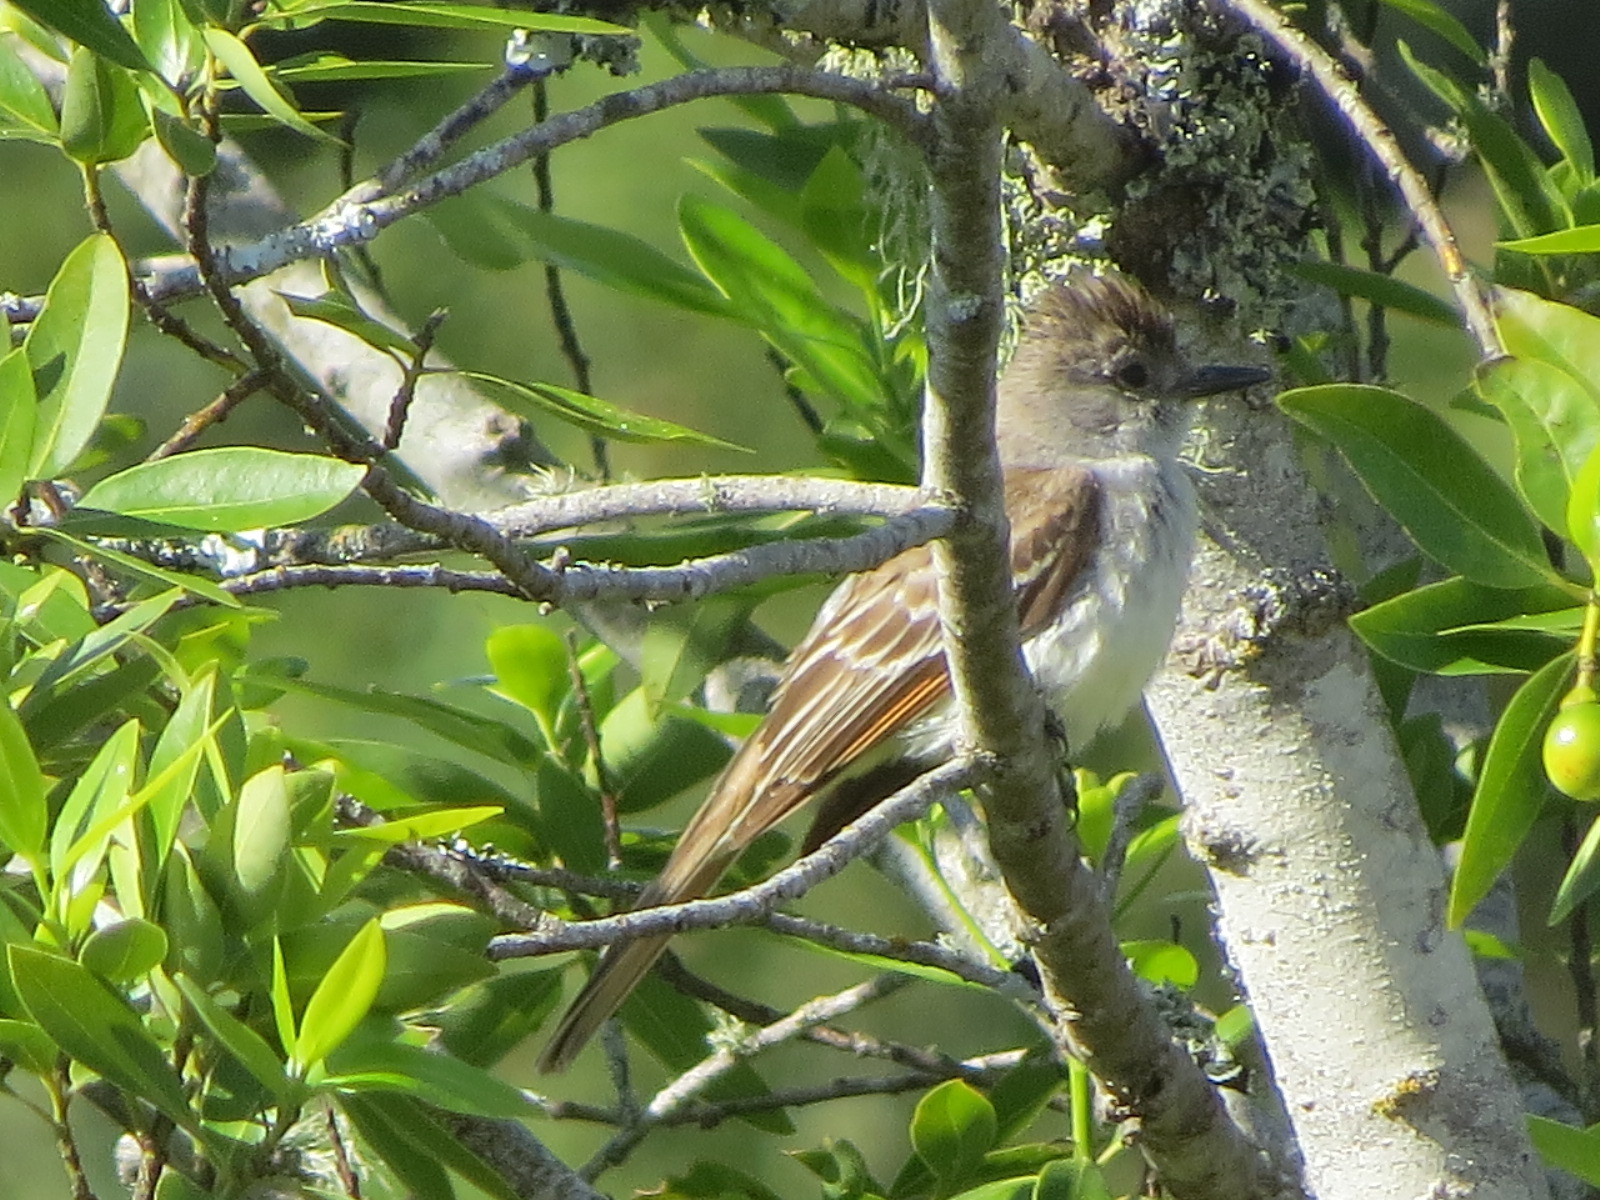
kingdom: Animalia
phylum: Chordata
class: Aves
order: Passeriformes
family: Tyrannidae
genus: Myiarchus
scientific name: Myiarchus cinerascens
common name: Ash-throated flycatcher
